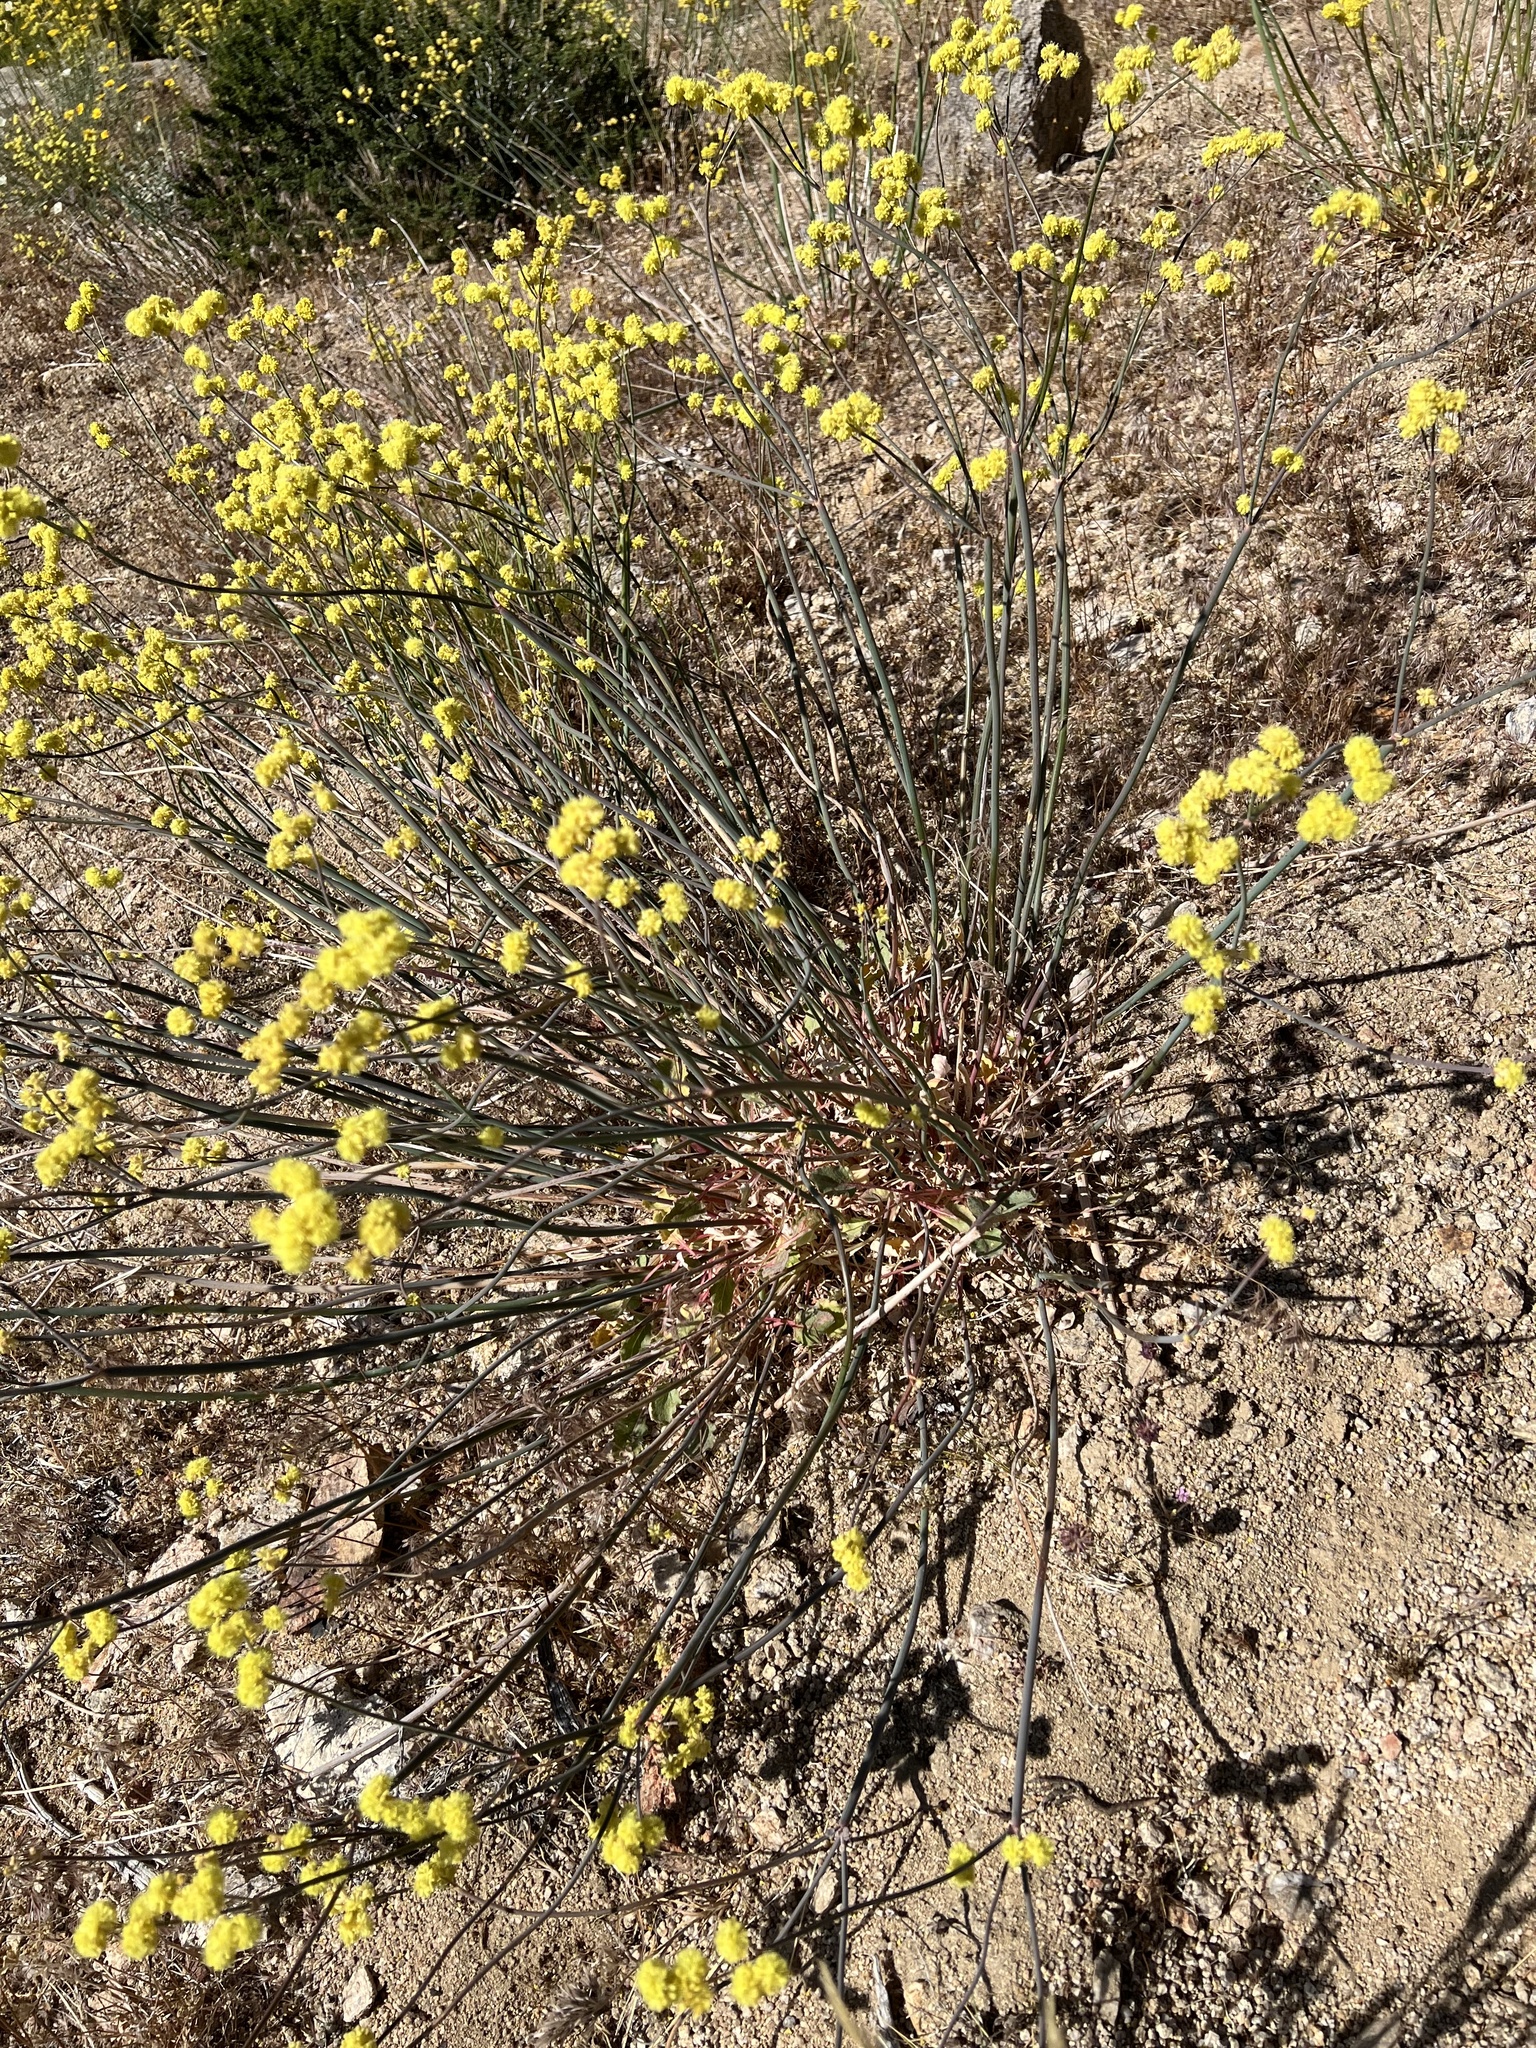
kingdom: Plantae
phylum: Tracheophyta
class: Magnoliopsida
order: Caryophyllales
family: Polygonaceae
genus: Eriogonum
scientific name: Eriogonum nudum
